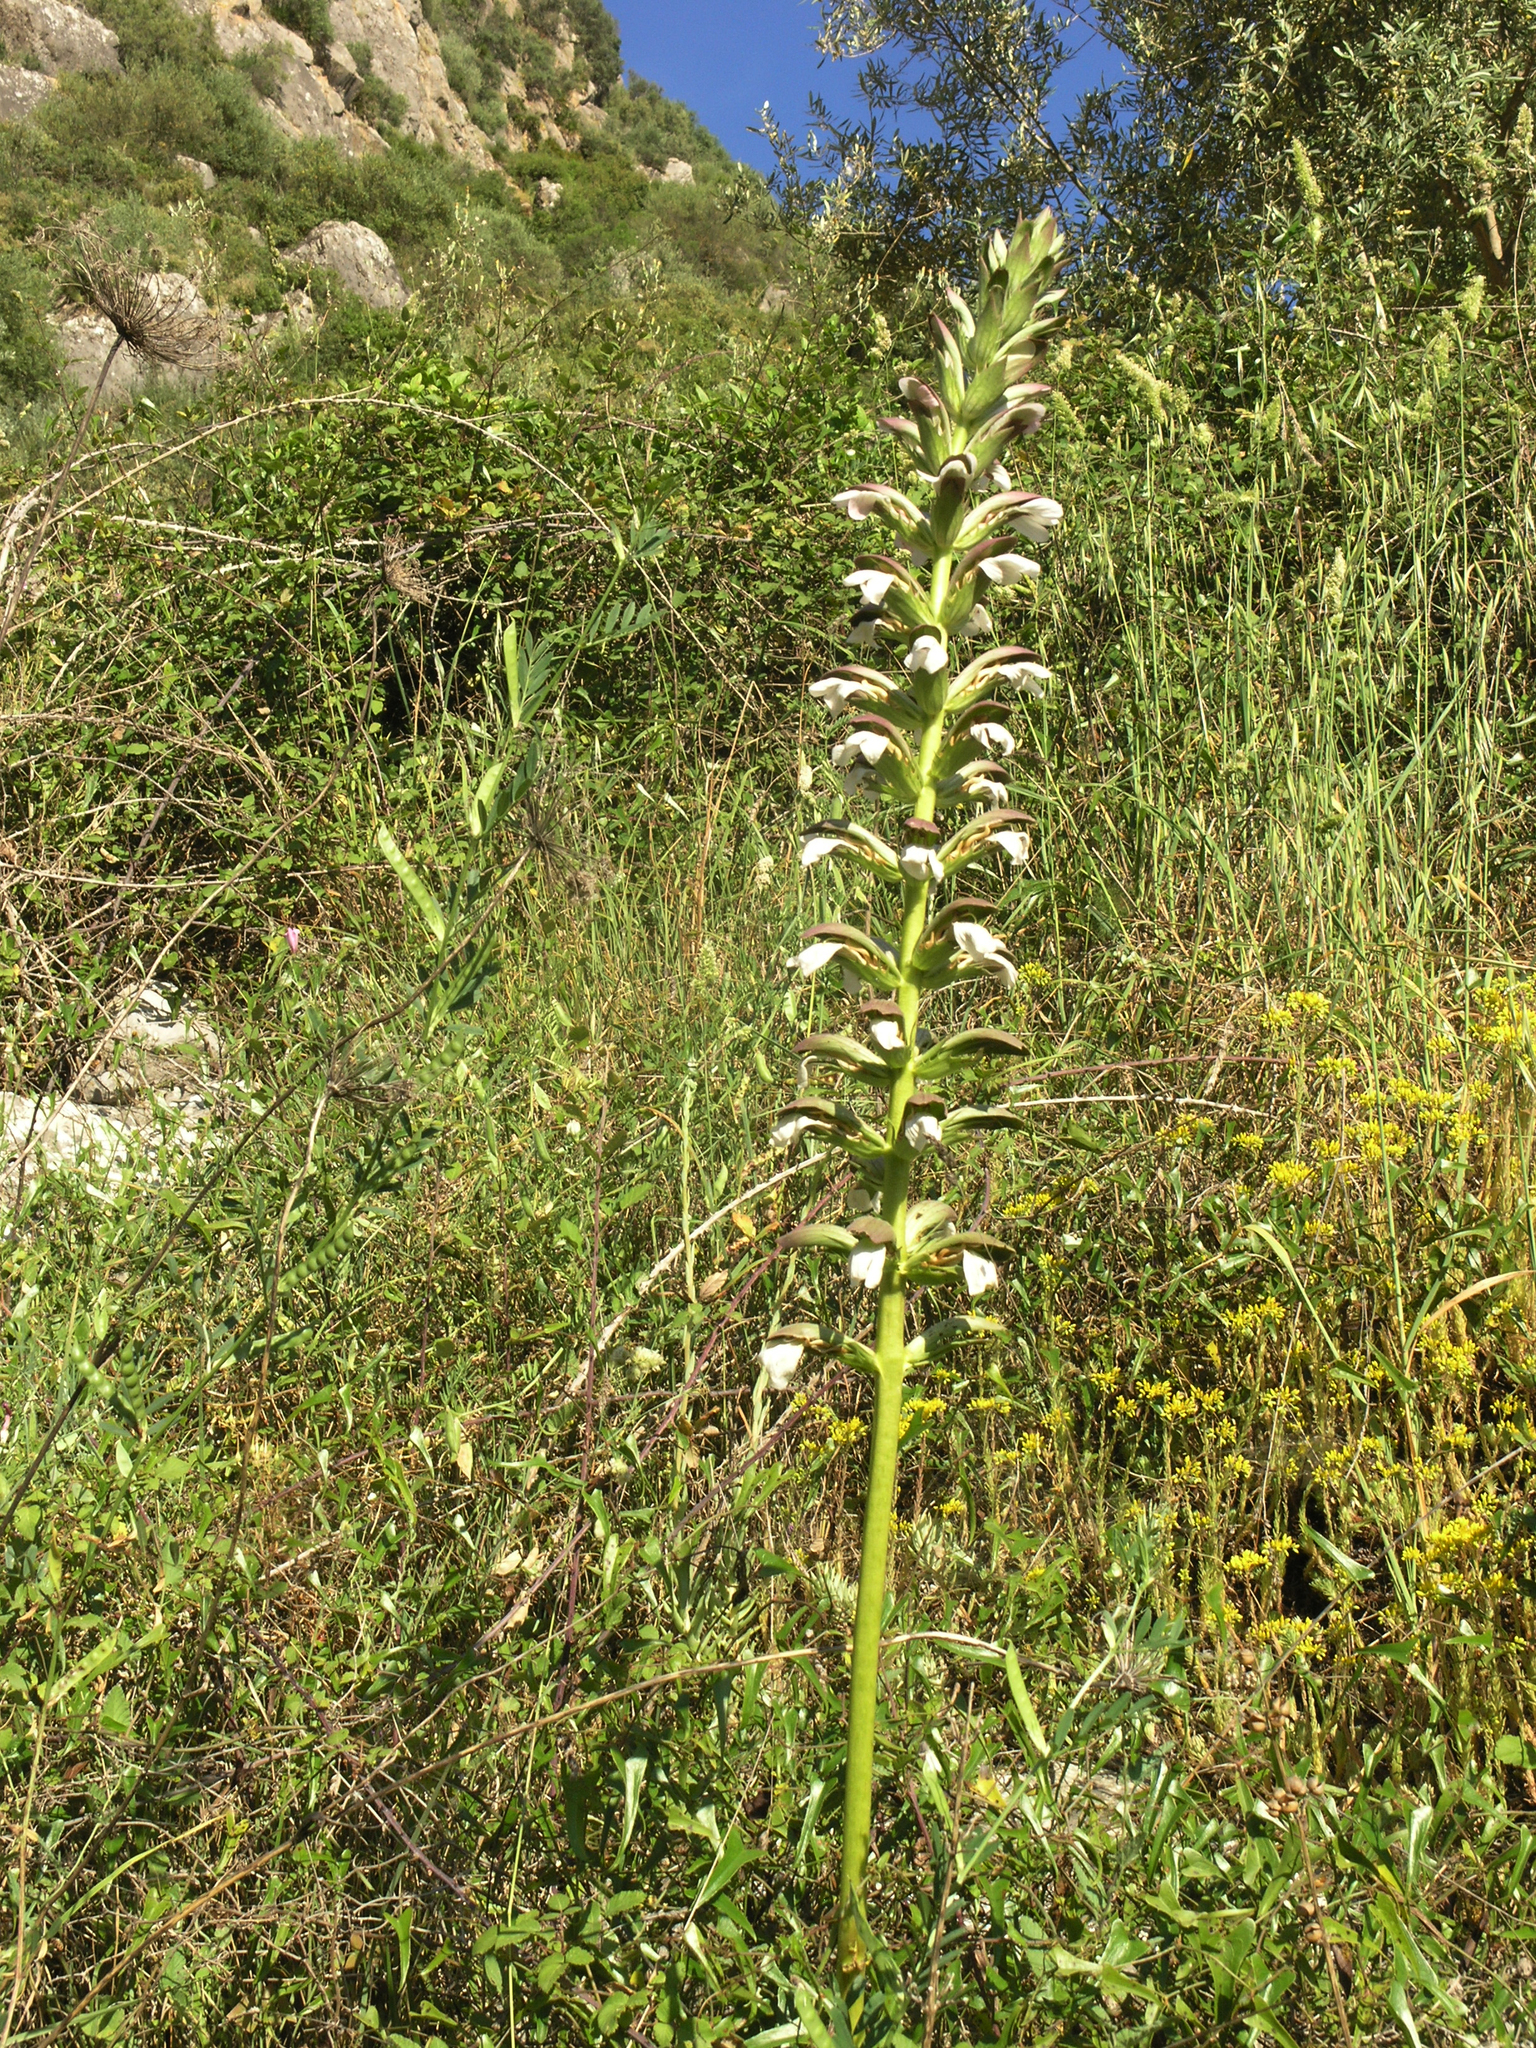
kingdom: Plantae
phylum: Tracheophyta
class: Magnoliopsida
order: Lamiales
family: Acanthaceae
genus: Acanthus
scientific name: Acanthus mollis
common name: Bear's-breech
